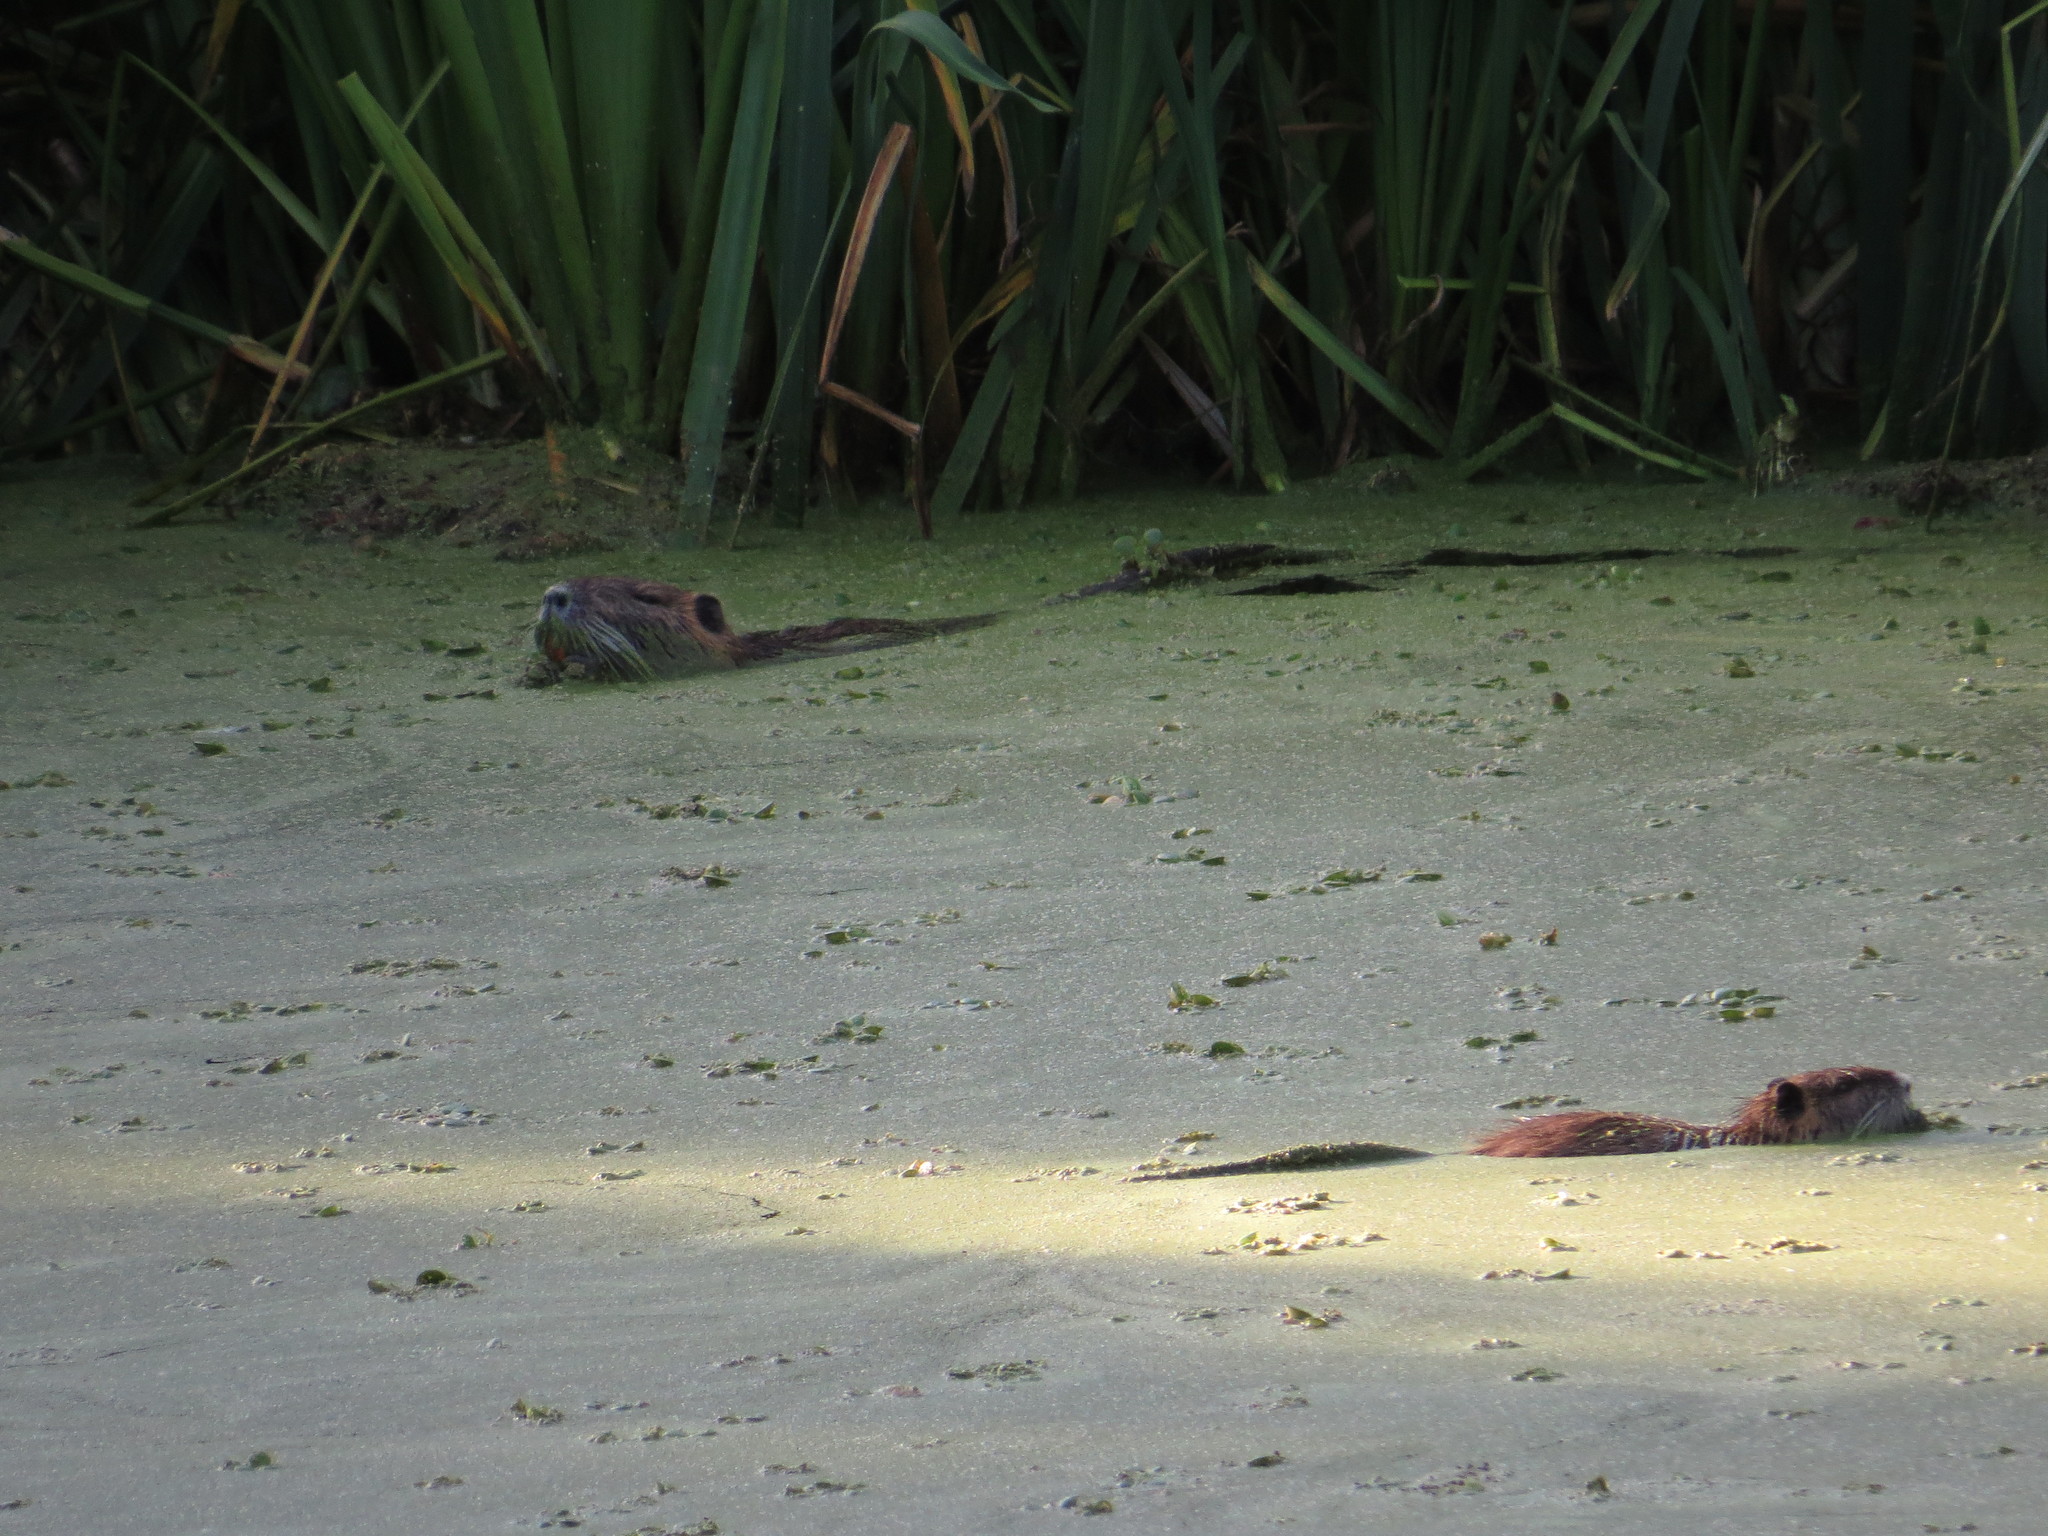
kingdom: Animalia
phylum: Chordata
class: Mammalia
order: Rodentia
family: Myocastoridae
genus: Myocastor
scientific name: Myocastor coypus
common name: Coypu
